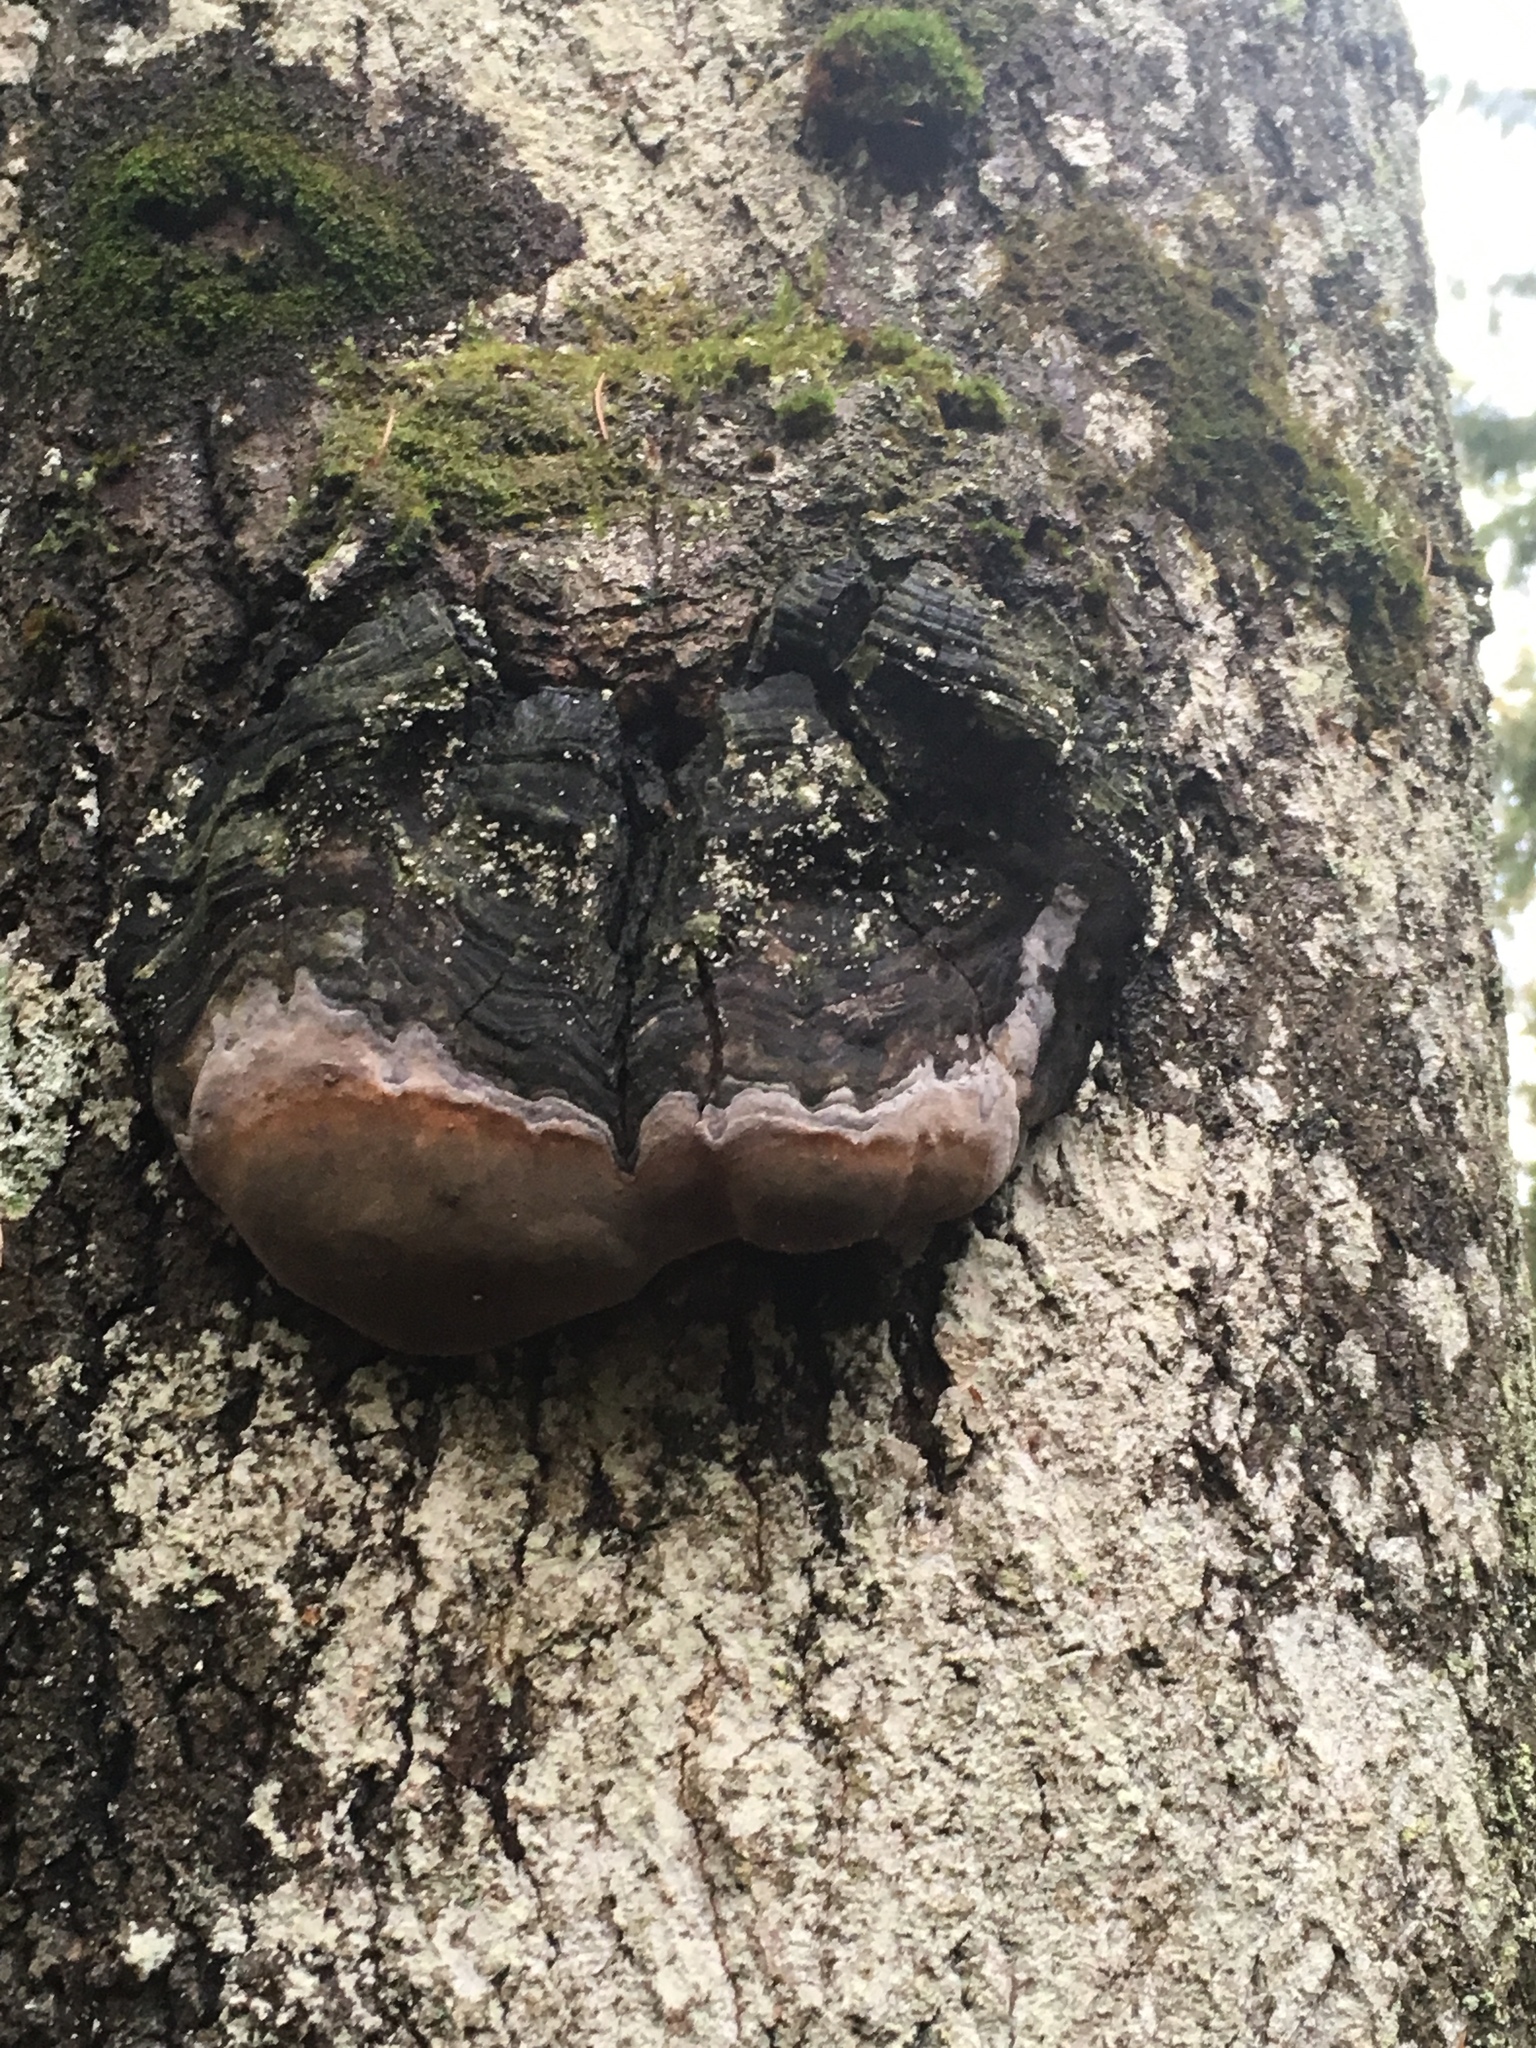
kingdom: Fungi
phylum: Basidiomycota
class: Agaricomycetes
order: Hymenochaetales
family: Hymenochaetaceae
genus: Phellinus
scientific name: Phellinus tremulae
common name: Aspen bracket
